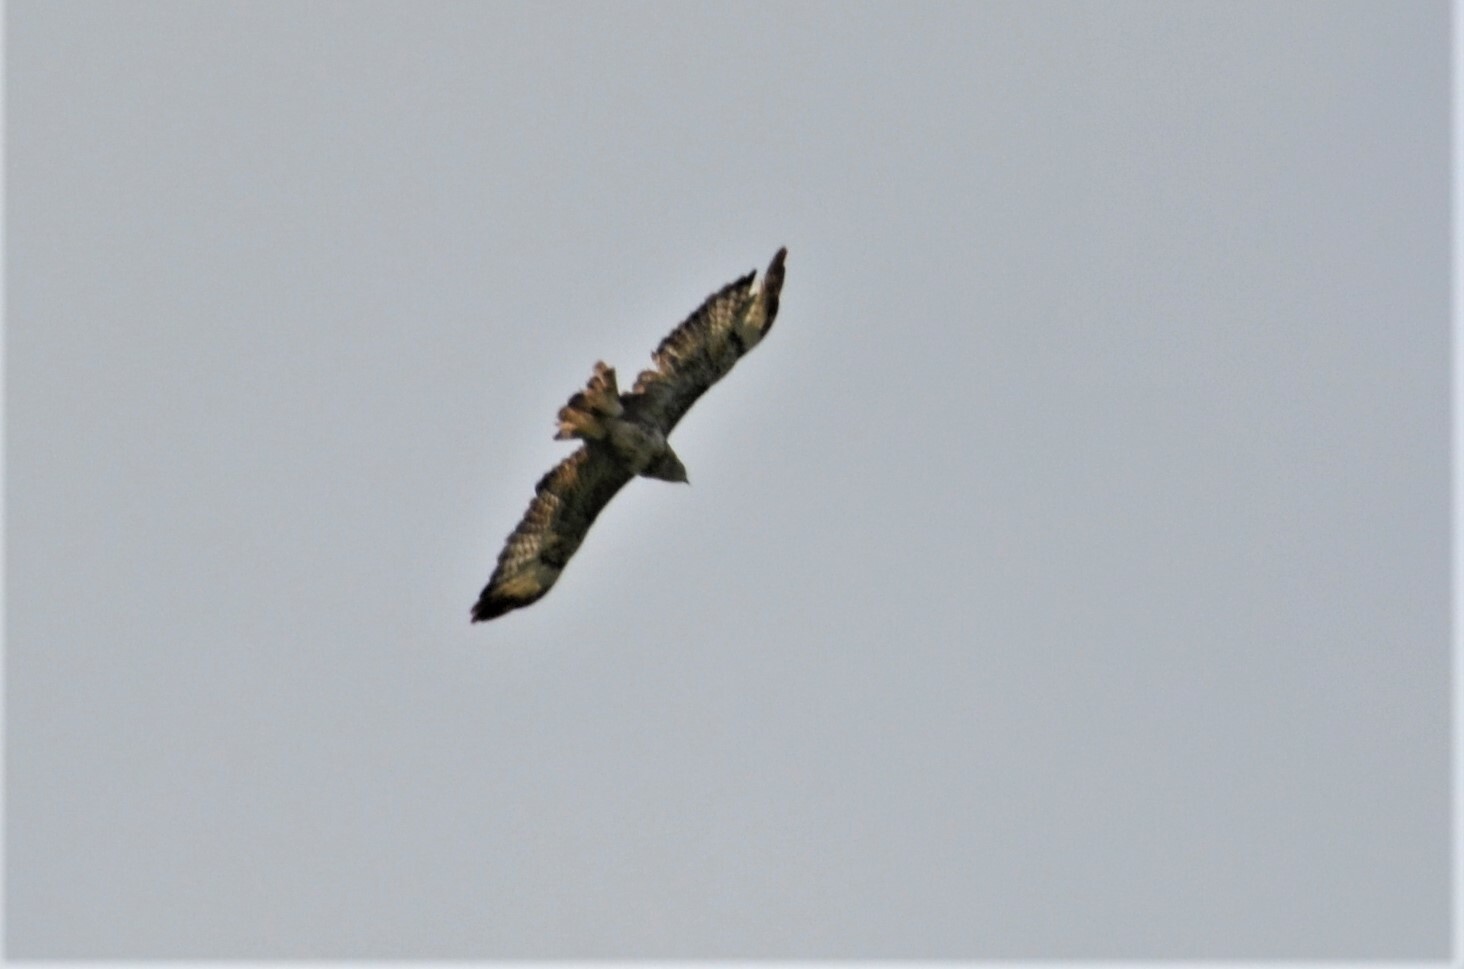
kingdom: Animalia
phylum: Chordata
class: Aves
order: Accipitriformes
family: Accipitridae
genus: Buteo
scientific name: Buteo buteo
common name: Common buzzard
